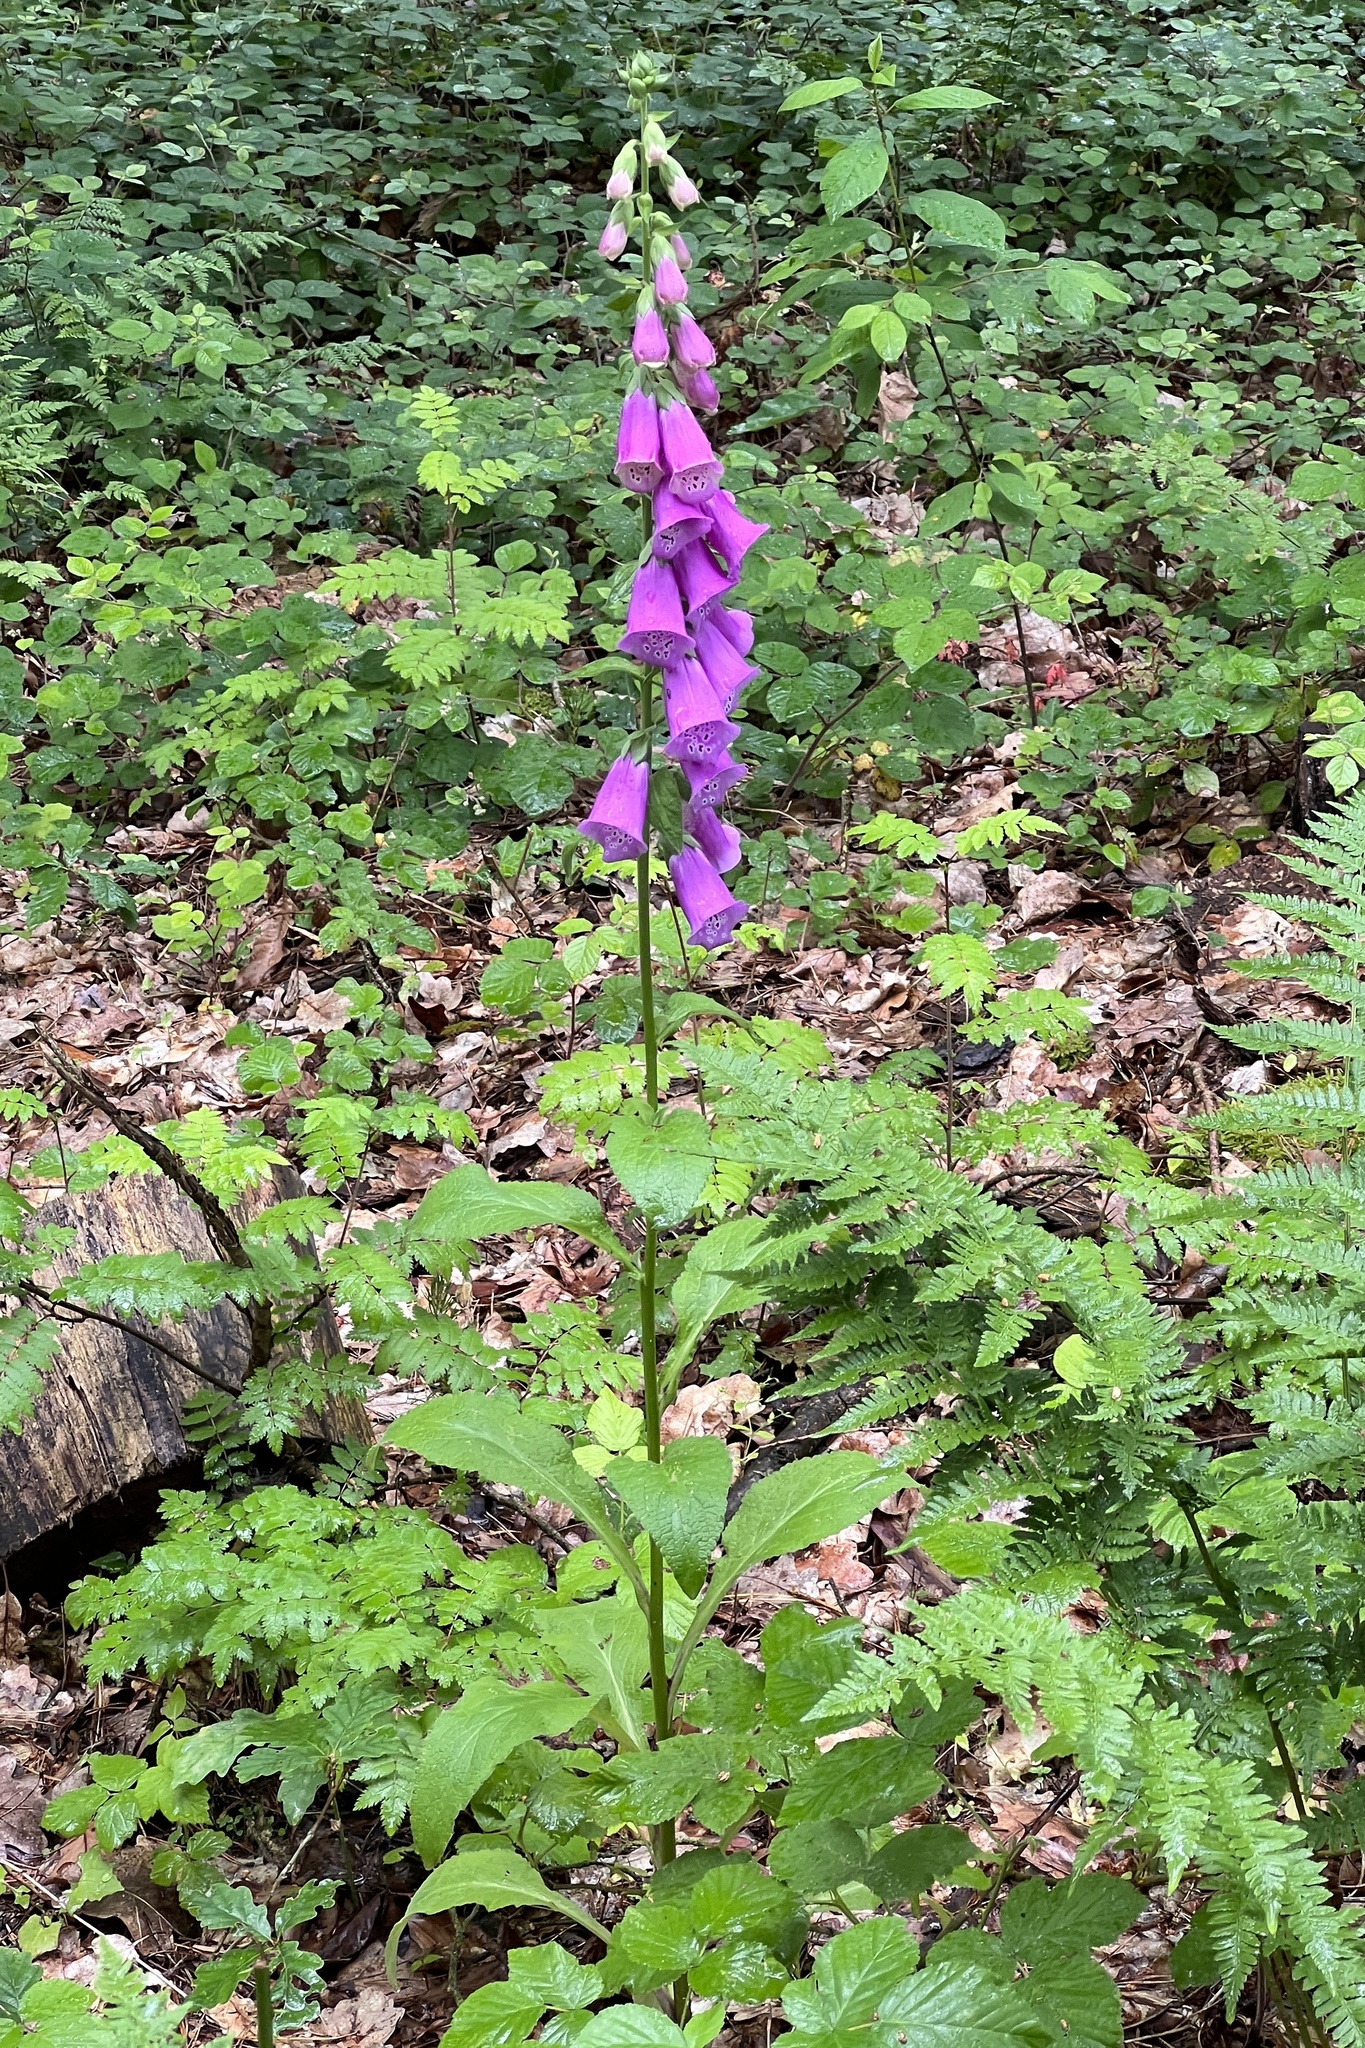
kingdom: Plantae
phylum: Tracheophyta
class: Magnoliopsida
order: Lamiales
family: Plantaginaceae
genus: Digitalis
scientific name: Digitalis purpurea
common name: Foxglove
